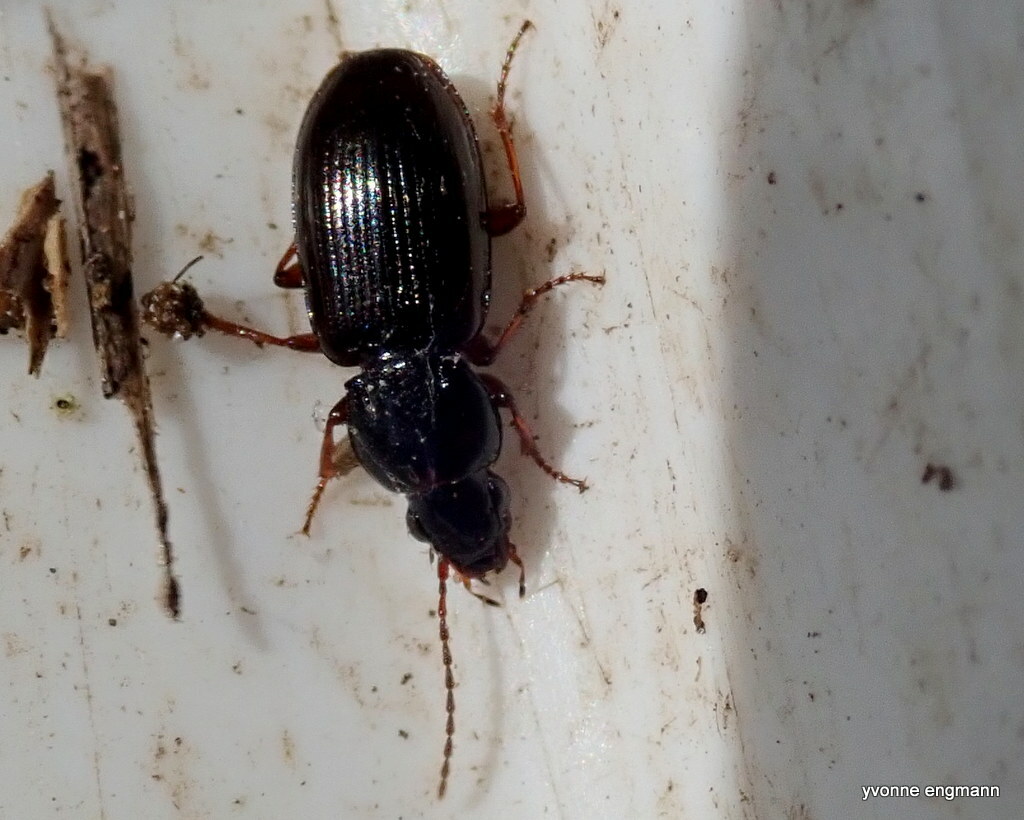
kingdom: Animalia
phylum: Arthropoda
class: Insecta
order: Coleoptera
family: Carabidae
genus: Pterostichus
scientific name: Pterostichus strenuus
